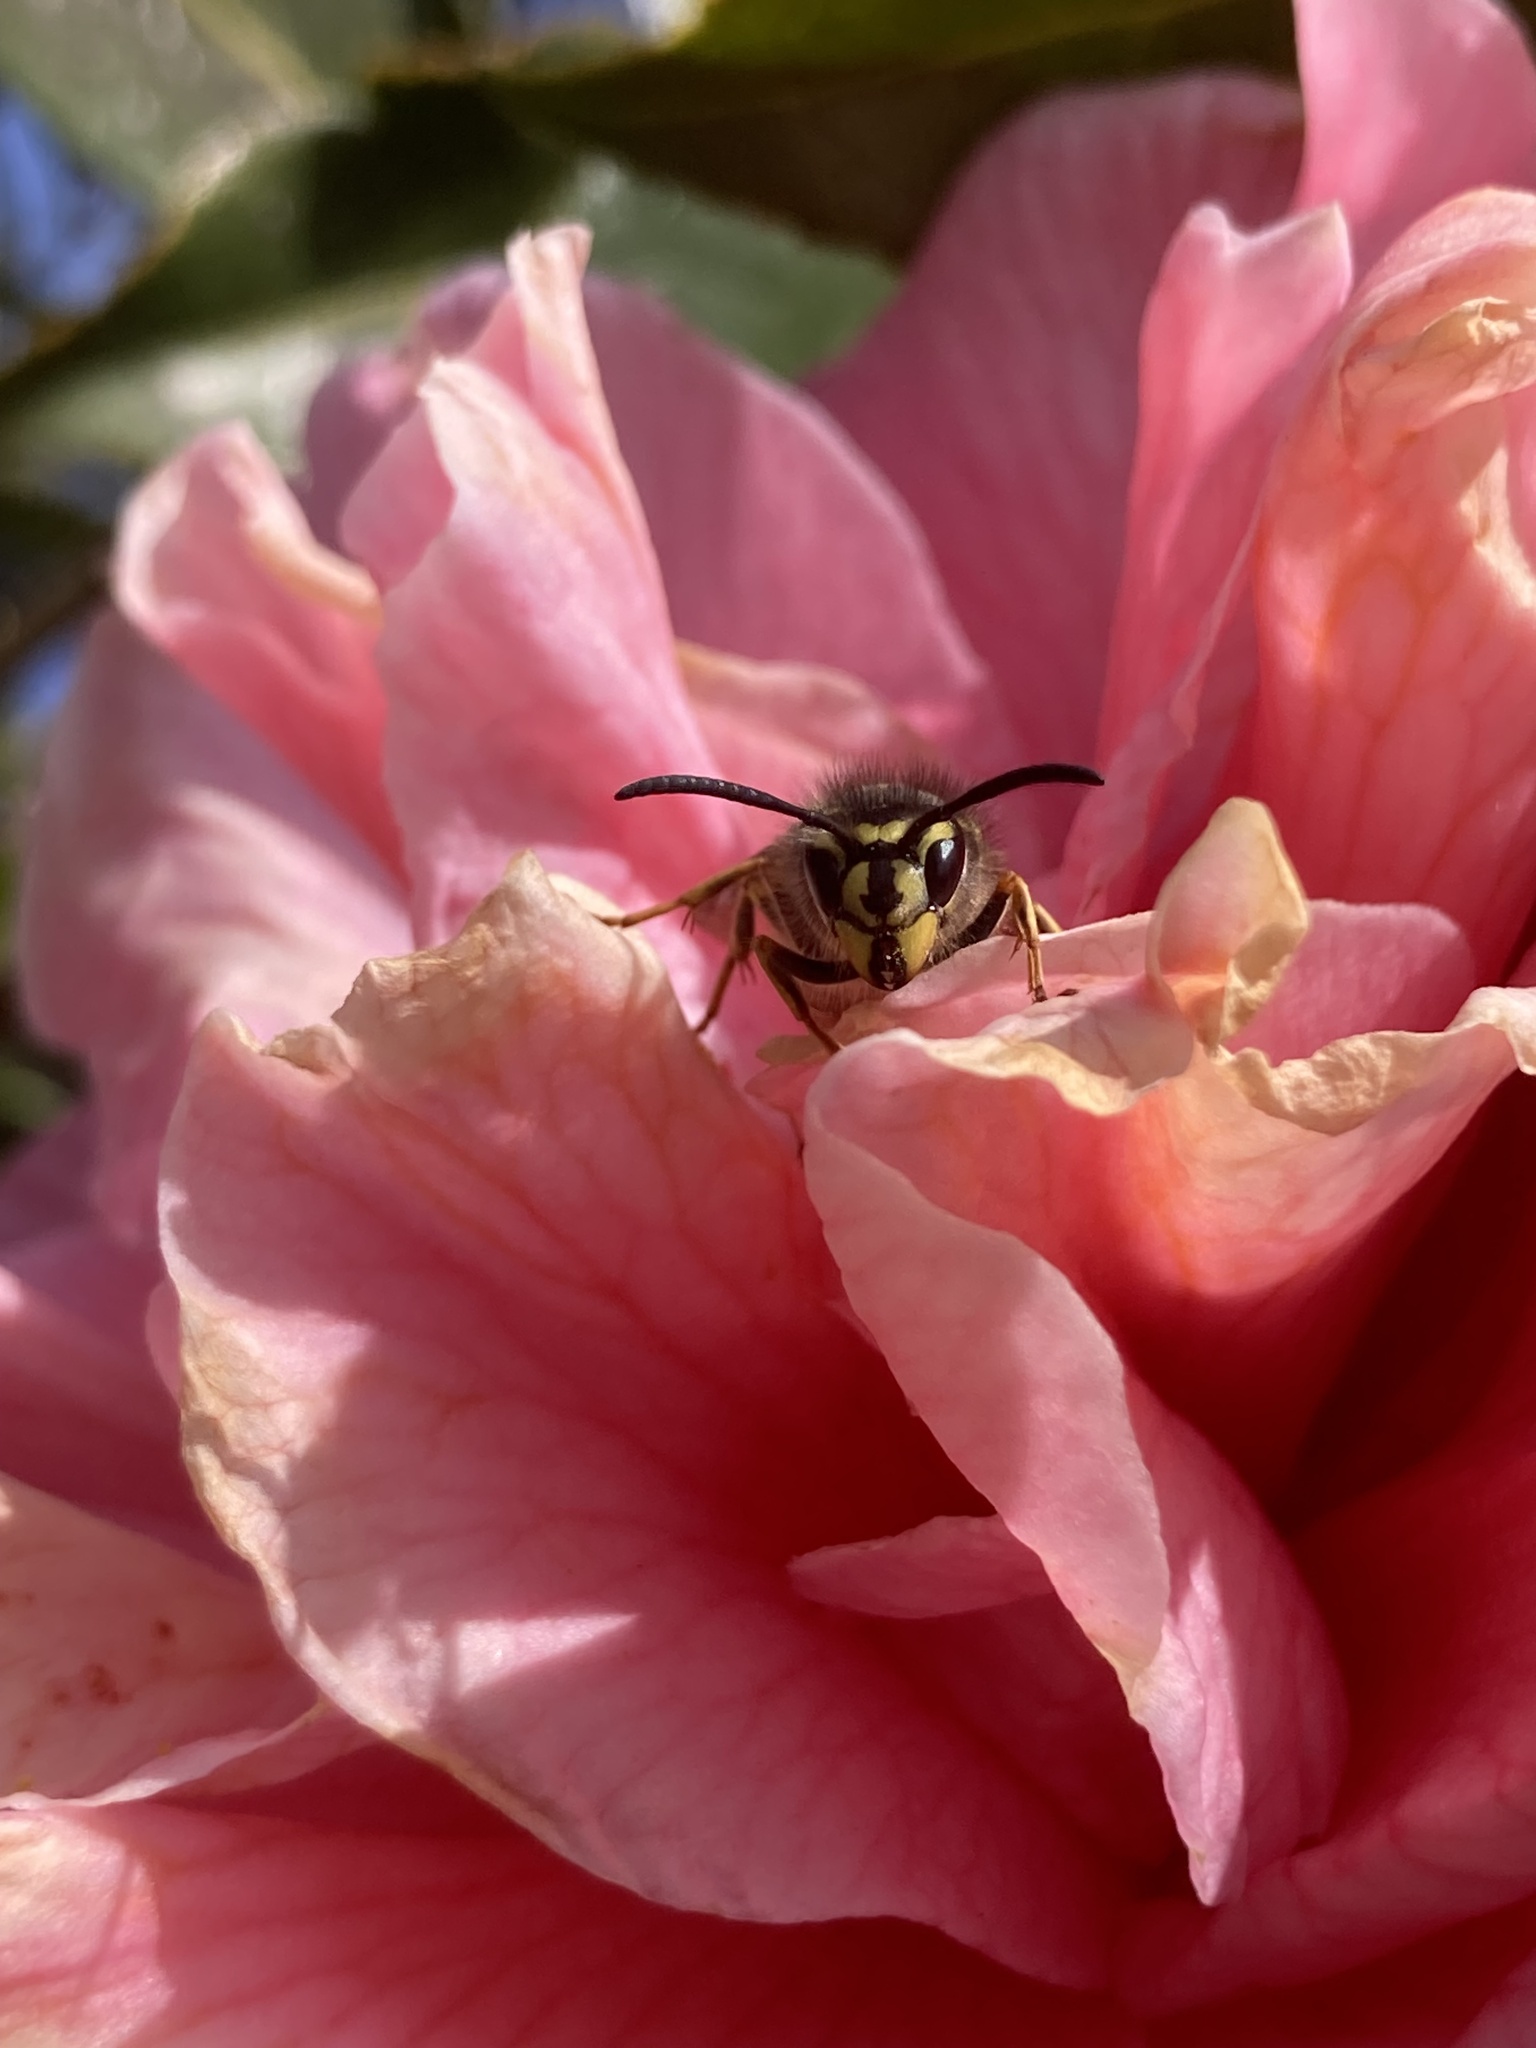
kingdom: Animalia
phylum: Arthropoda
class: Insecta
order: Hymenoptera
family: Vespidae
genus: Vespula
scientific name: Vespula vulgaris
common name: Common wasp
